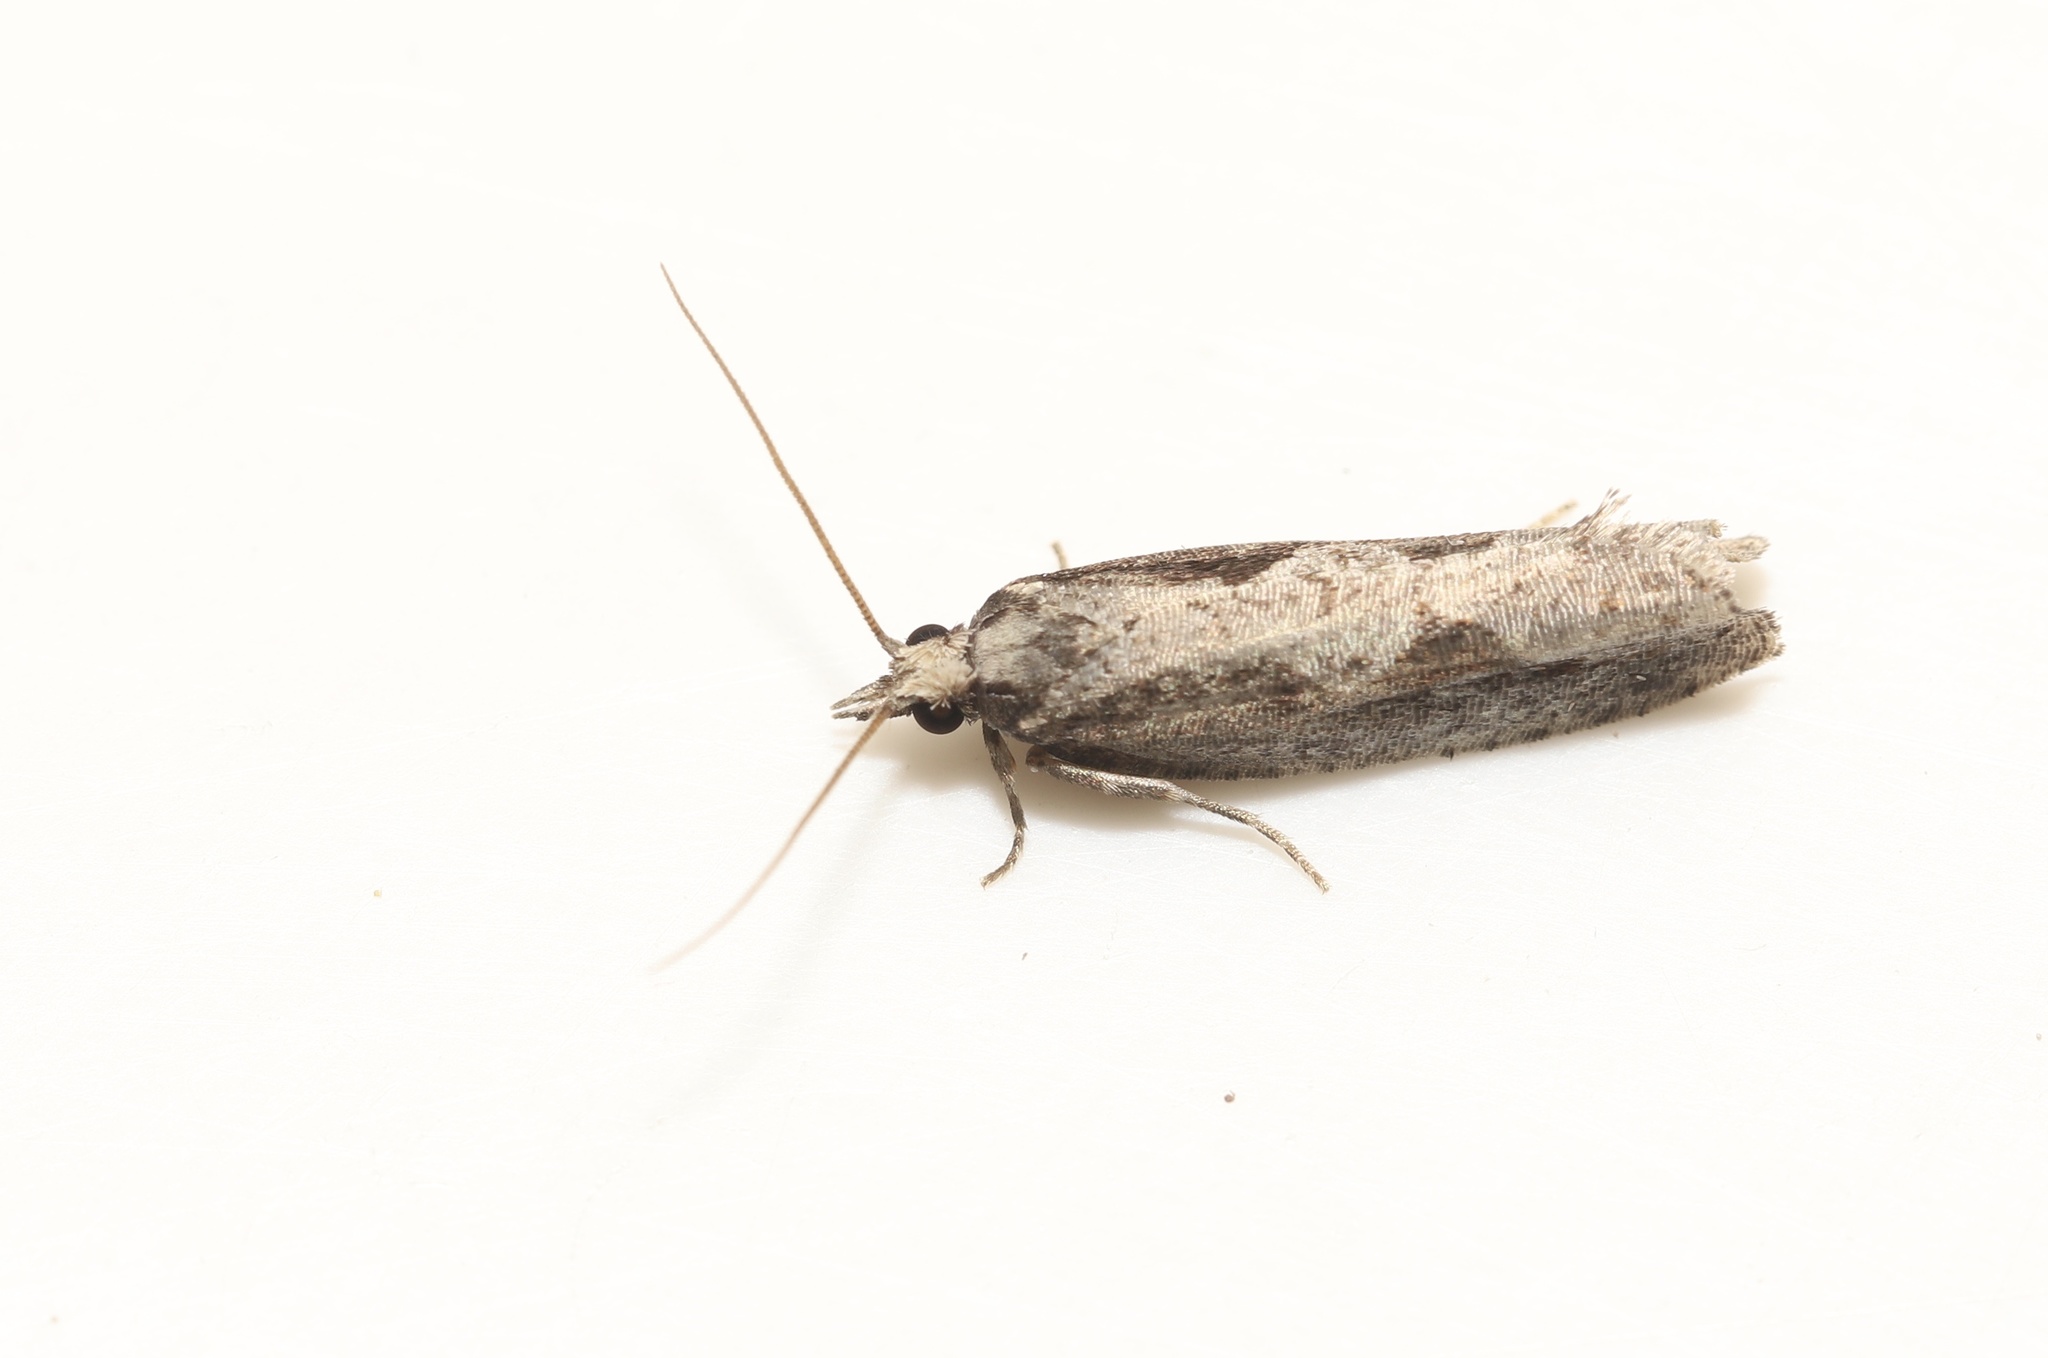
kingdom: Animalia
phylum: Arthropoda
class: Insecta
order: Lepidoptera
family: Tortricidae
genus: Epinotia
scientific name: Epinotia lindana
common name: Diamondback epinotia moth
